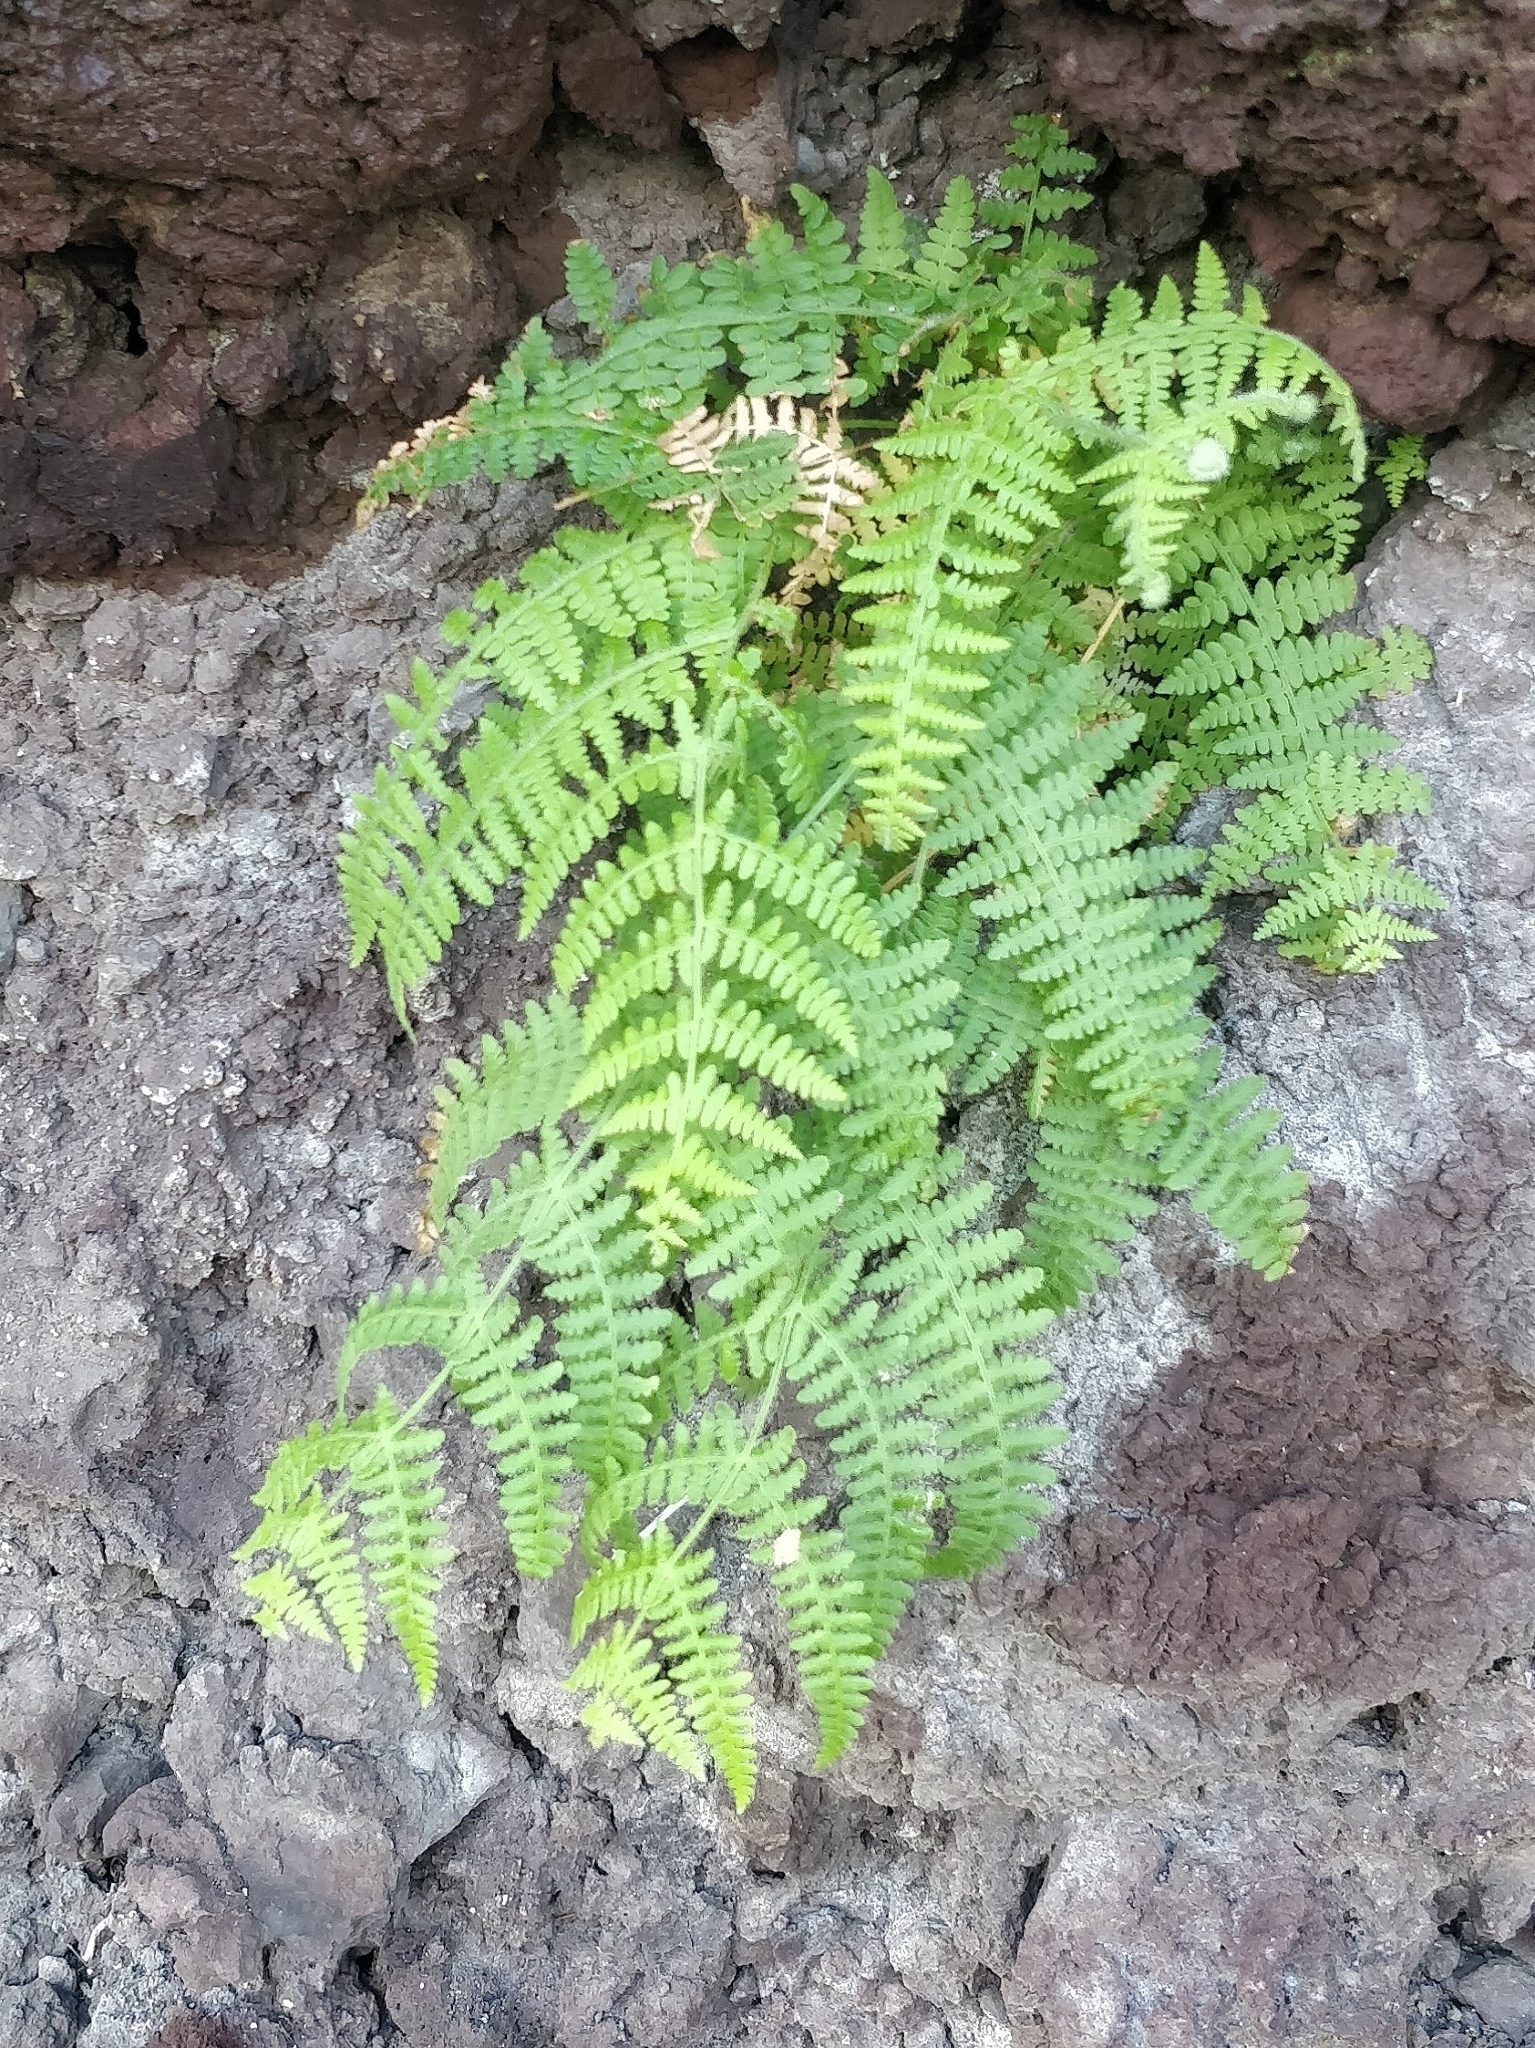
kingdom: Plantae
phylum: Tracheophyta
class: Polypodiopsida
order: Polypodiales
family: Dennstaedtiaceae
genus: Pteridium
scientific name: Pteridium aquilinum
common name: Bracken
